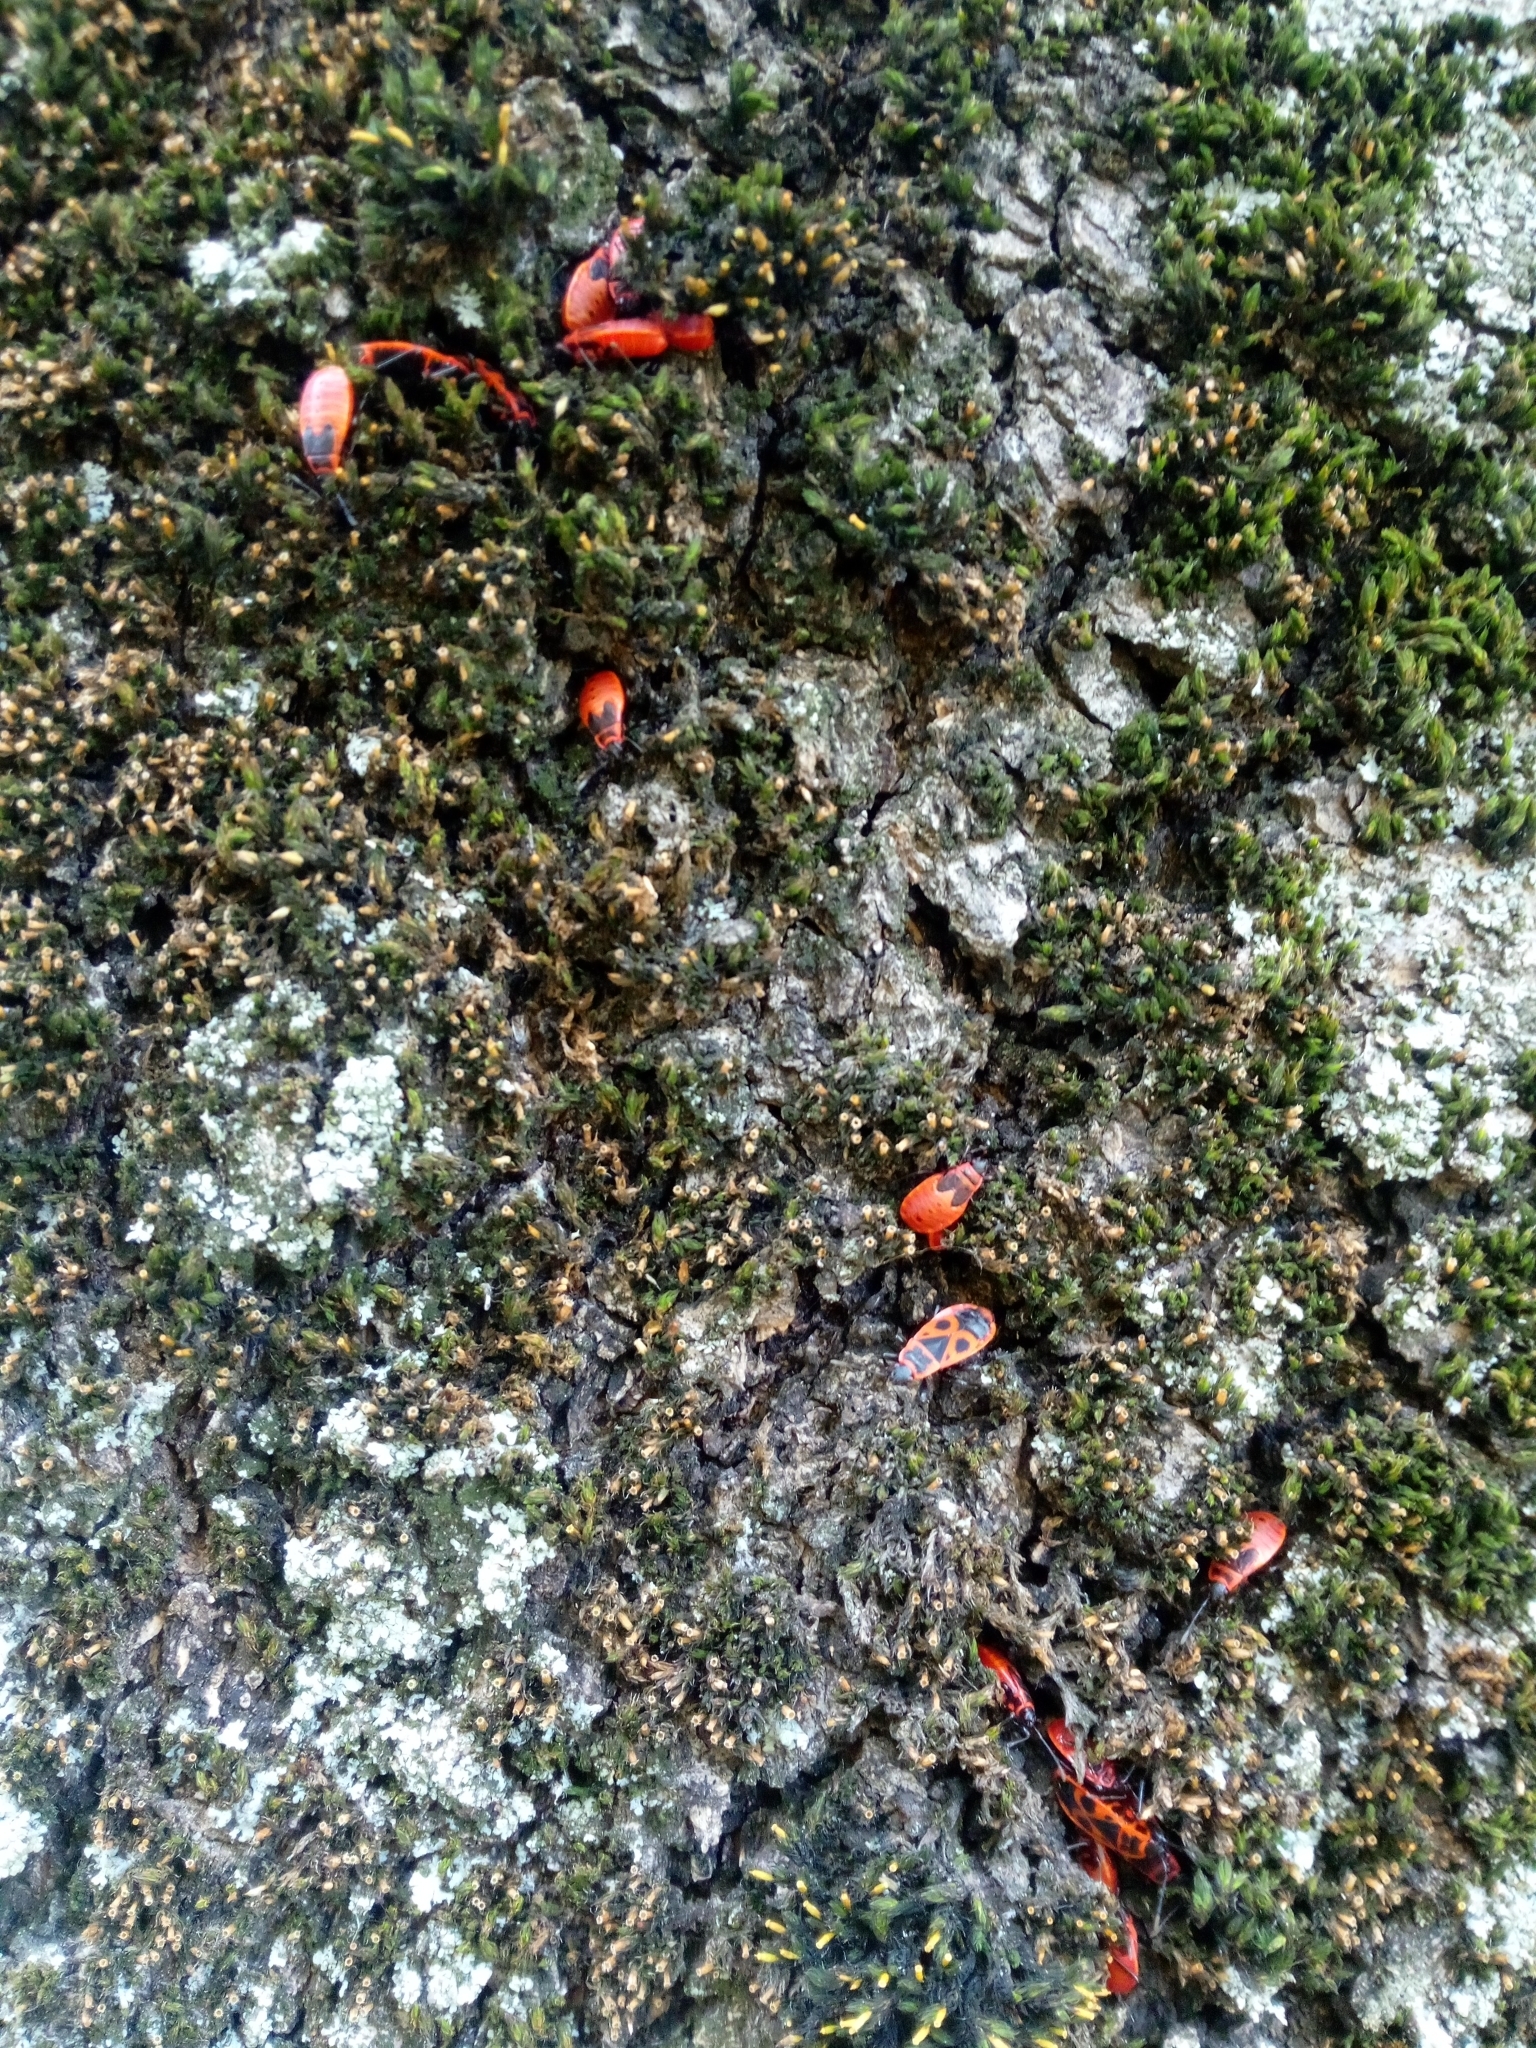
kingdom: Animalia
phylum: Arthropoda
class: Insecta
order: Hemiptera
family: Pyrrhocoridae
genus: Pyrrhocoris
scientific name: Pyrrhocoris apterus
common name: Firebug
